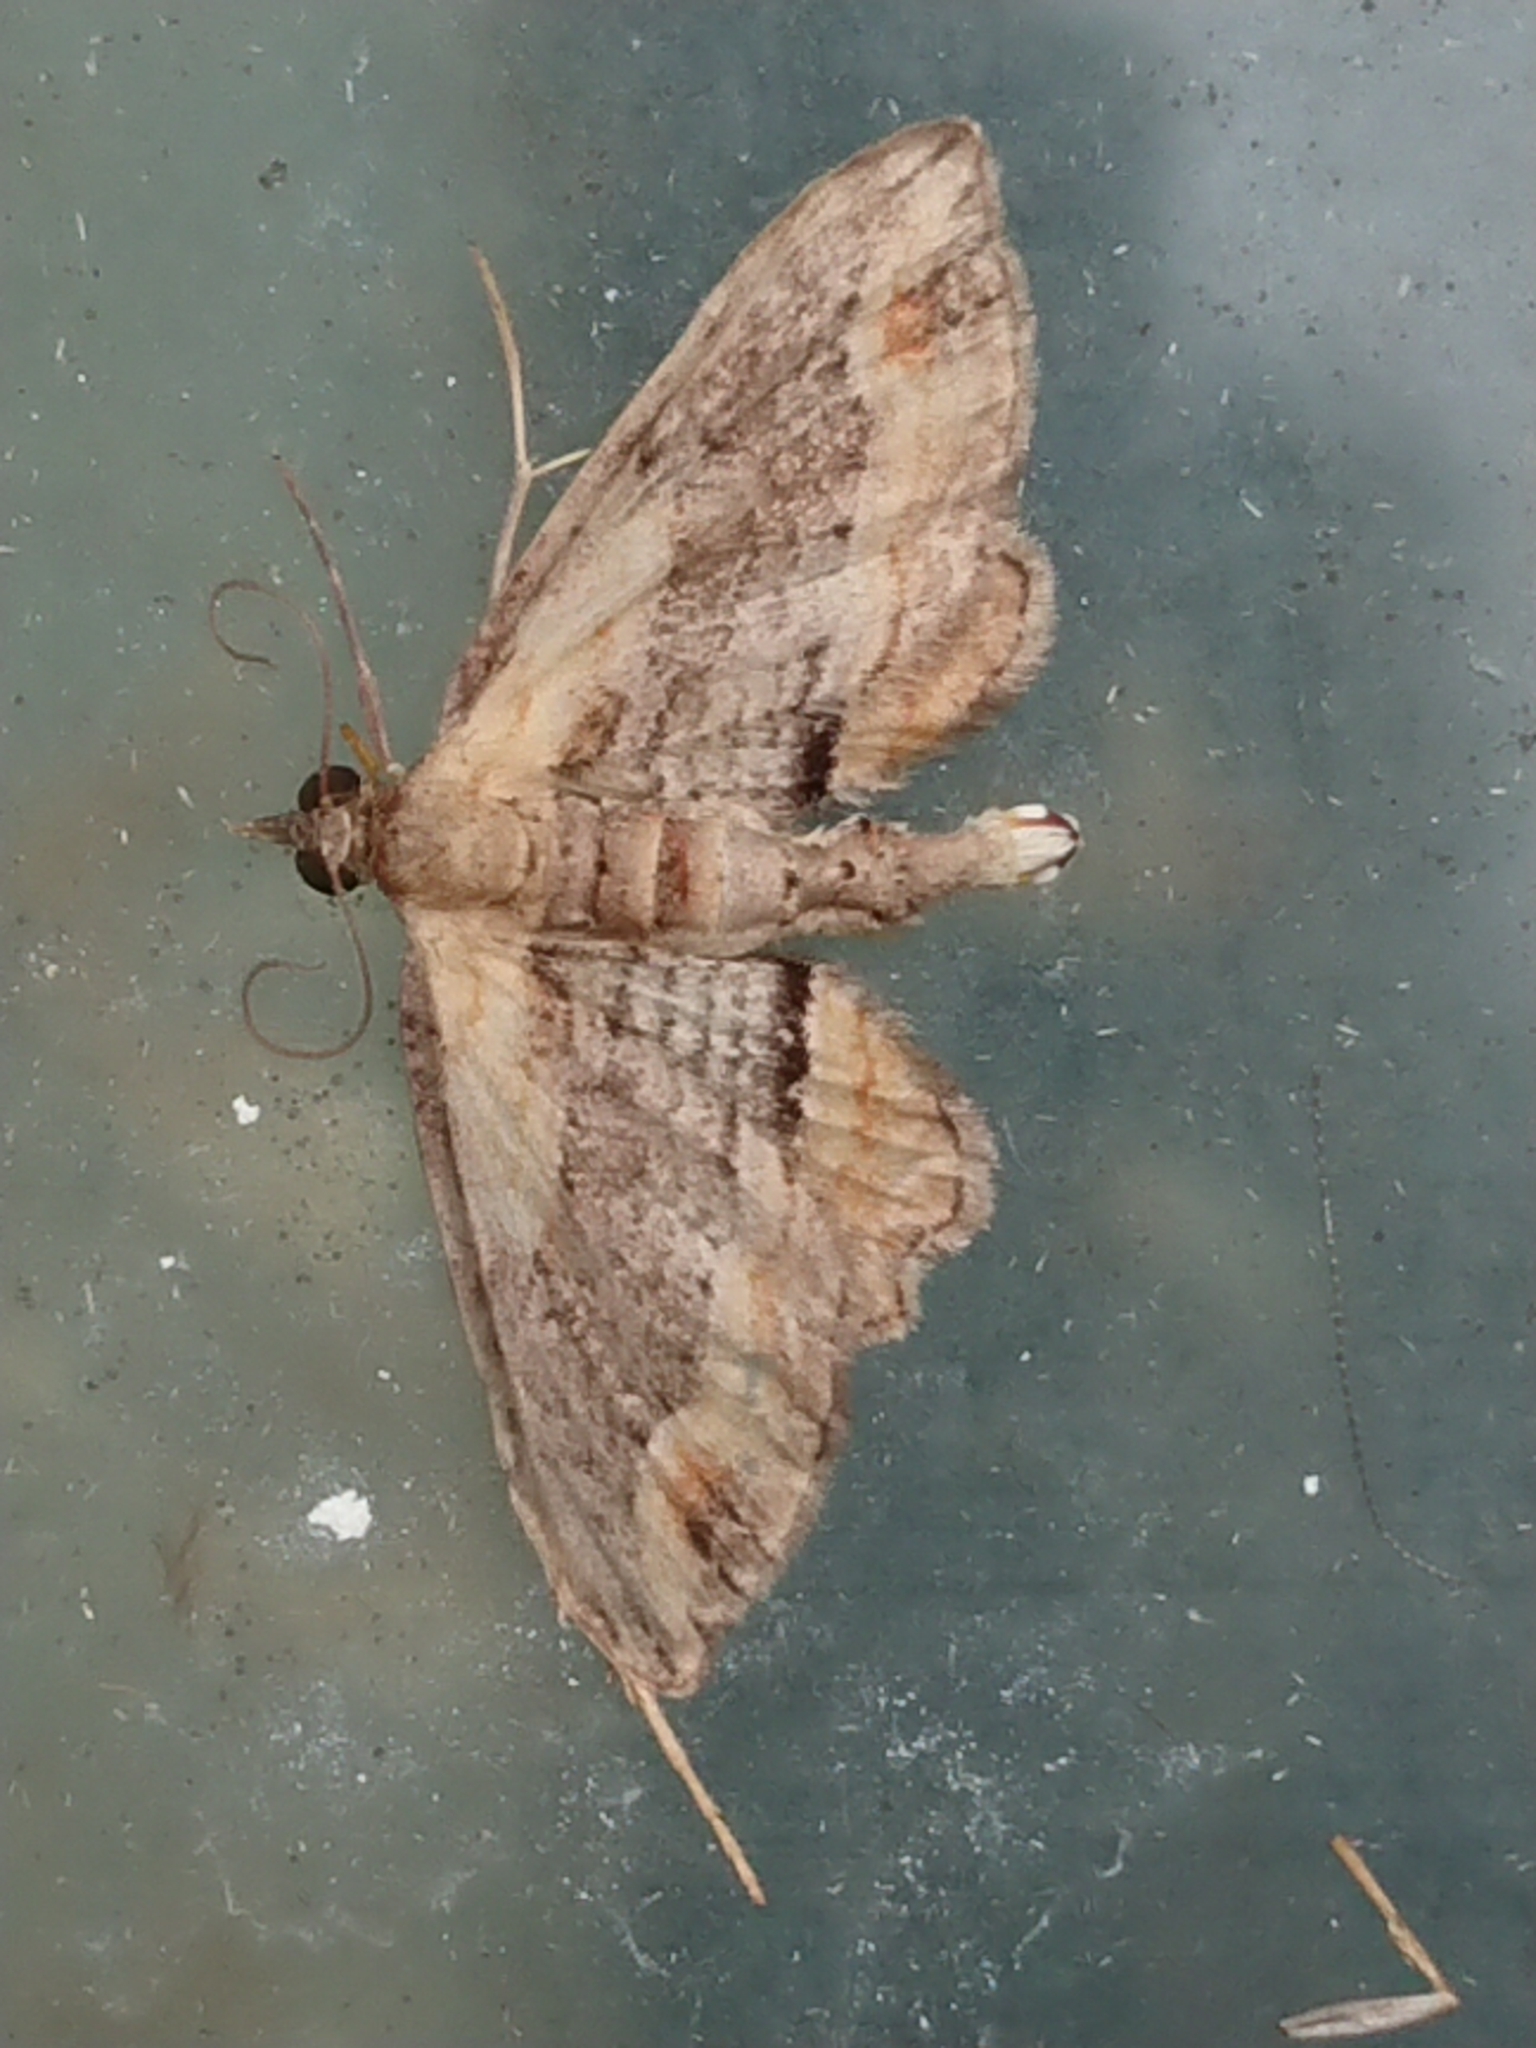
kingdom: Animalia
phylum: Arthropoda
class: Insecta
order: Lepidoptera
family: Geometridae
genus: Chloroclystis
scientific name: Chloroclystis filata
